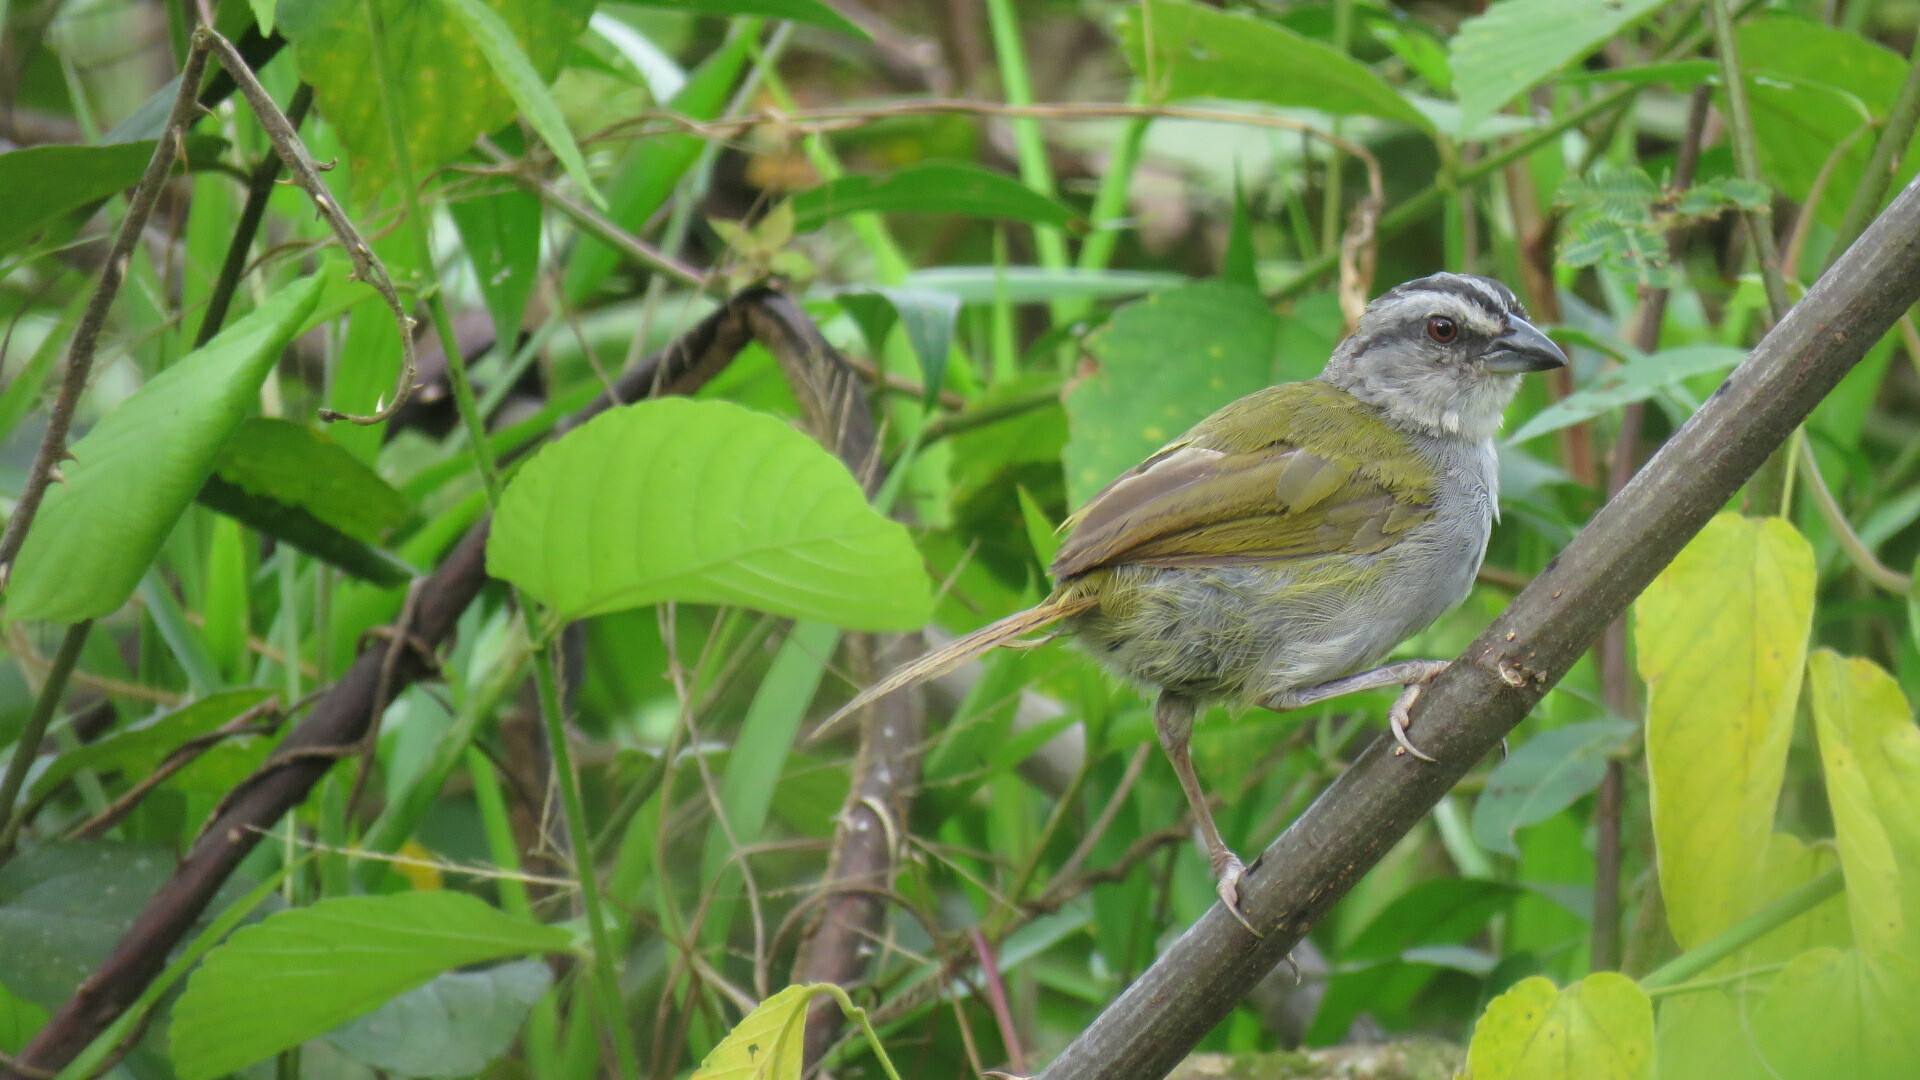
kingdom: Animalia
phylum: Chordata
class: Aves
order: Passeriformes
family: Passerellidae
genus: Arremonops
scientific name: Arremonops conirostris
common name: Black-striped sparrow
